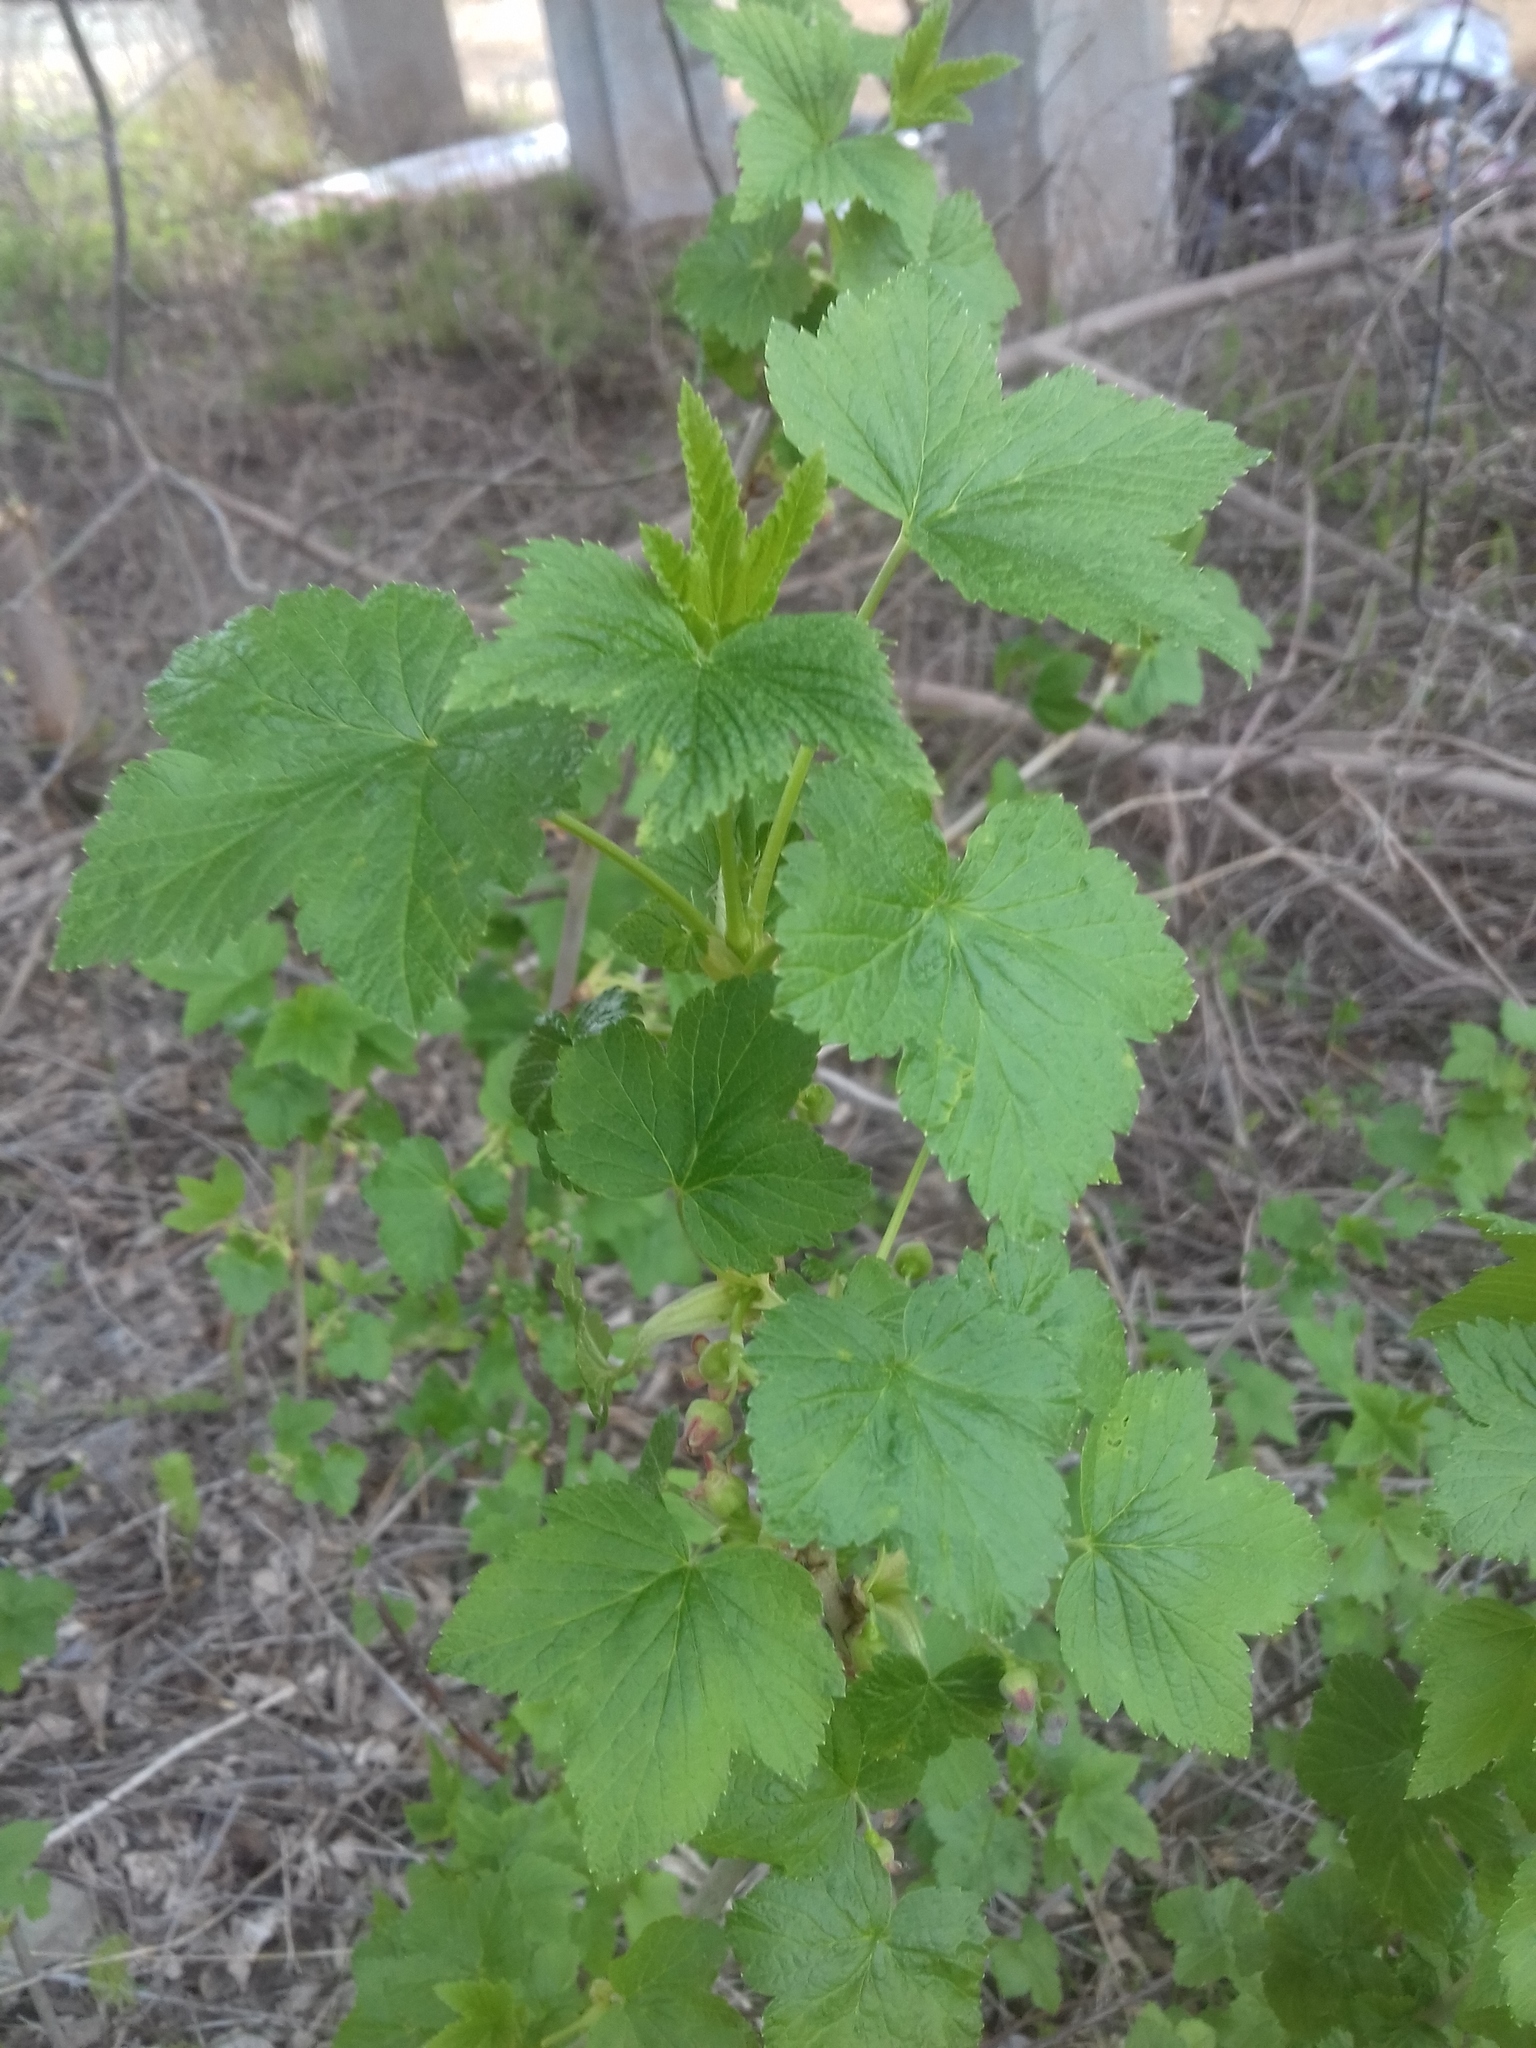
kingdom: Plantae
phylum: Tracheophyta
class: Magnoliopsida
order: Saxifragales
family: Grossulariaceae
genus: Ribes
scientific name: Ribes nigrum
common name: Black currant
